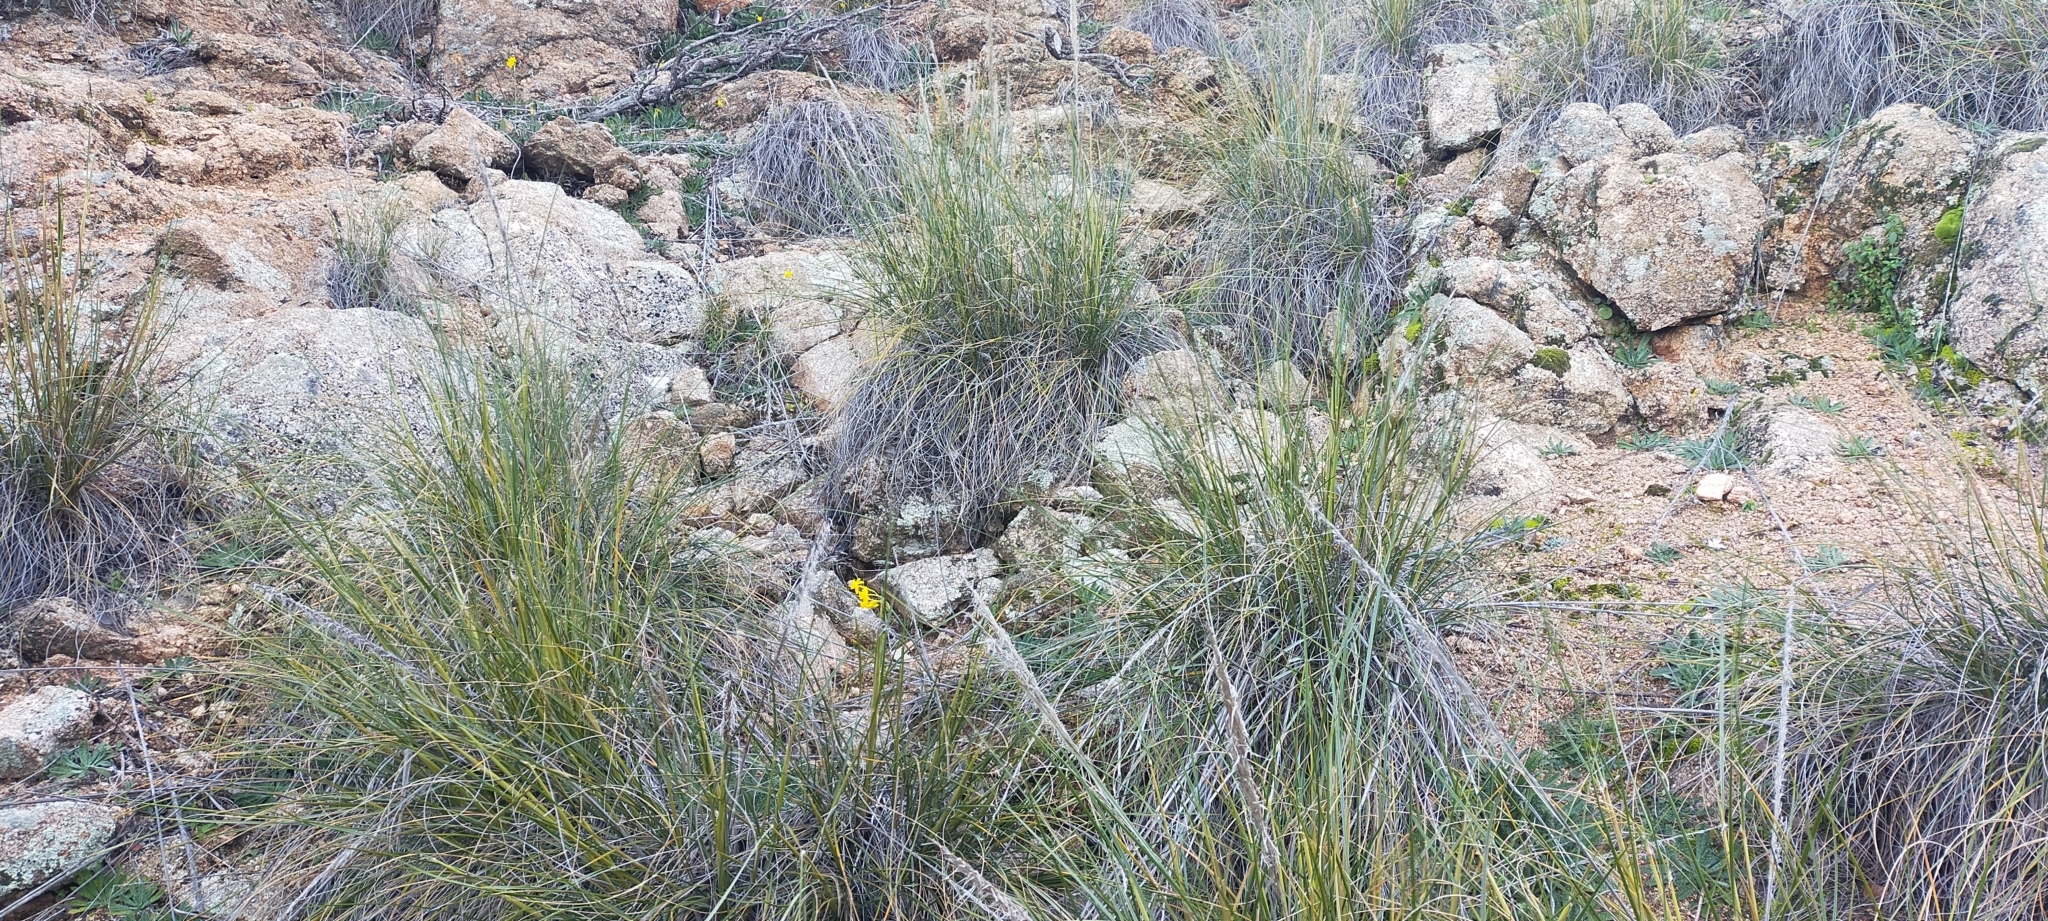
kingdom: Plantae
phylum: Tracheophyta
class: Liliopsida
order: Poales
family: Poaceae
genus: Macrochloa
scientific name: Macrochloa tenacissima
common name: Alfa grass
